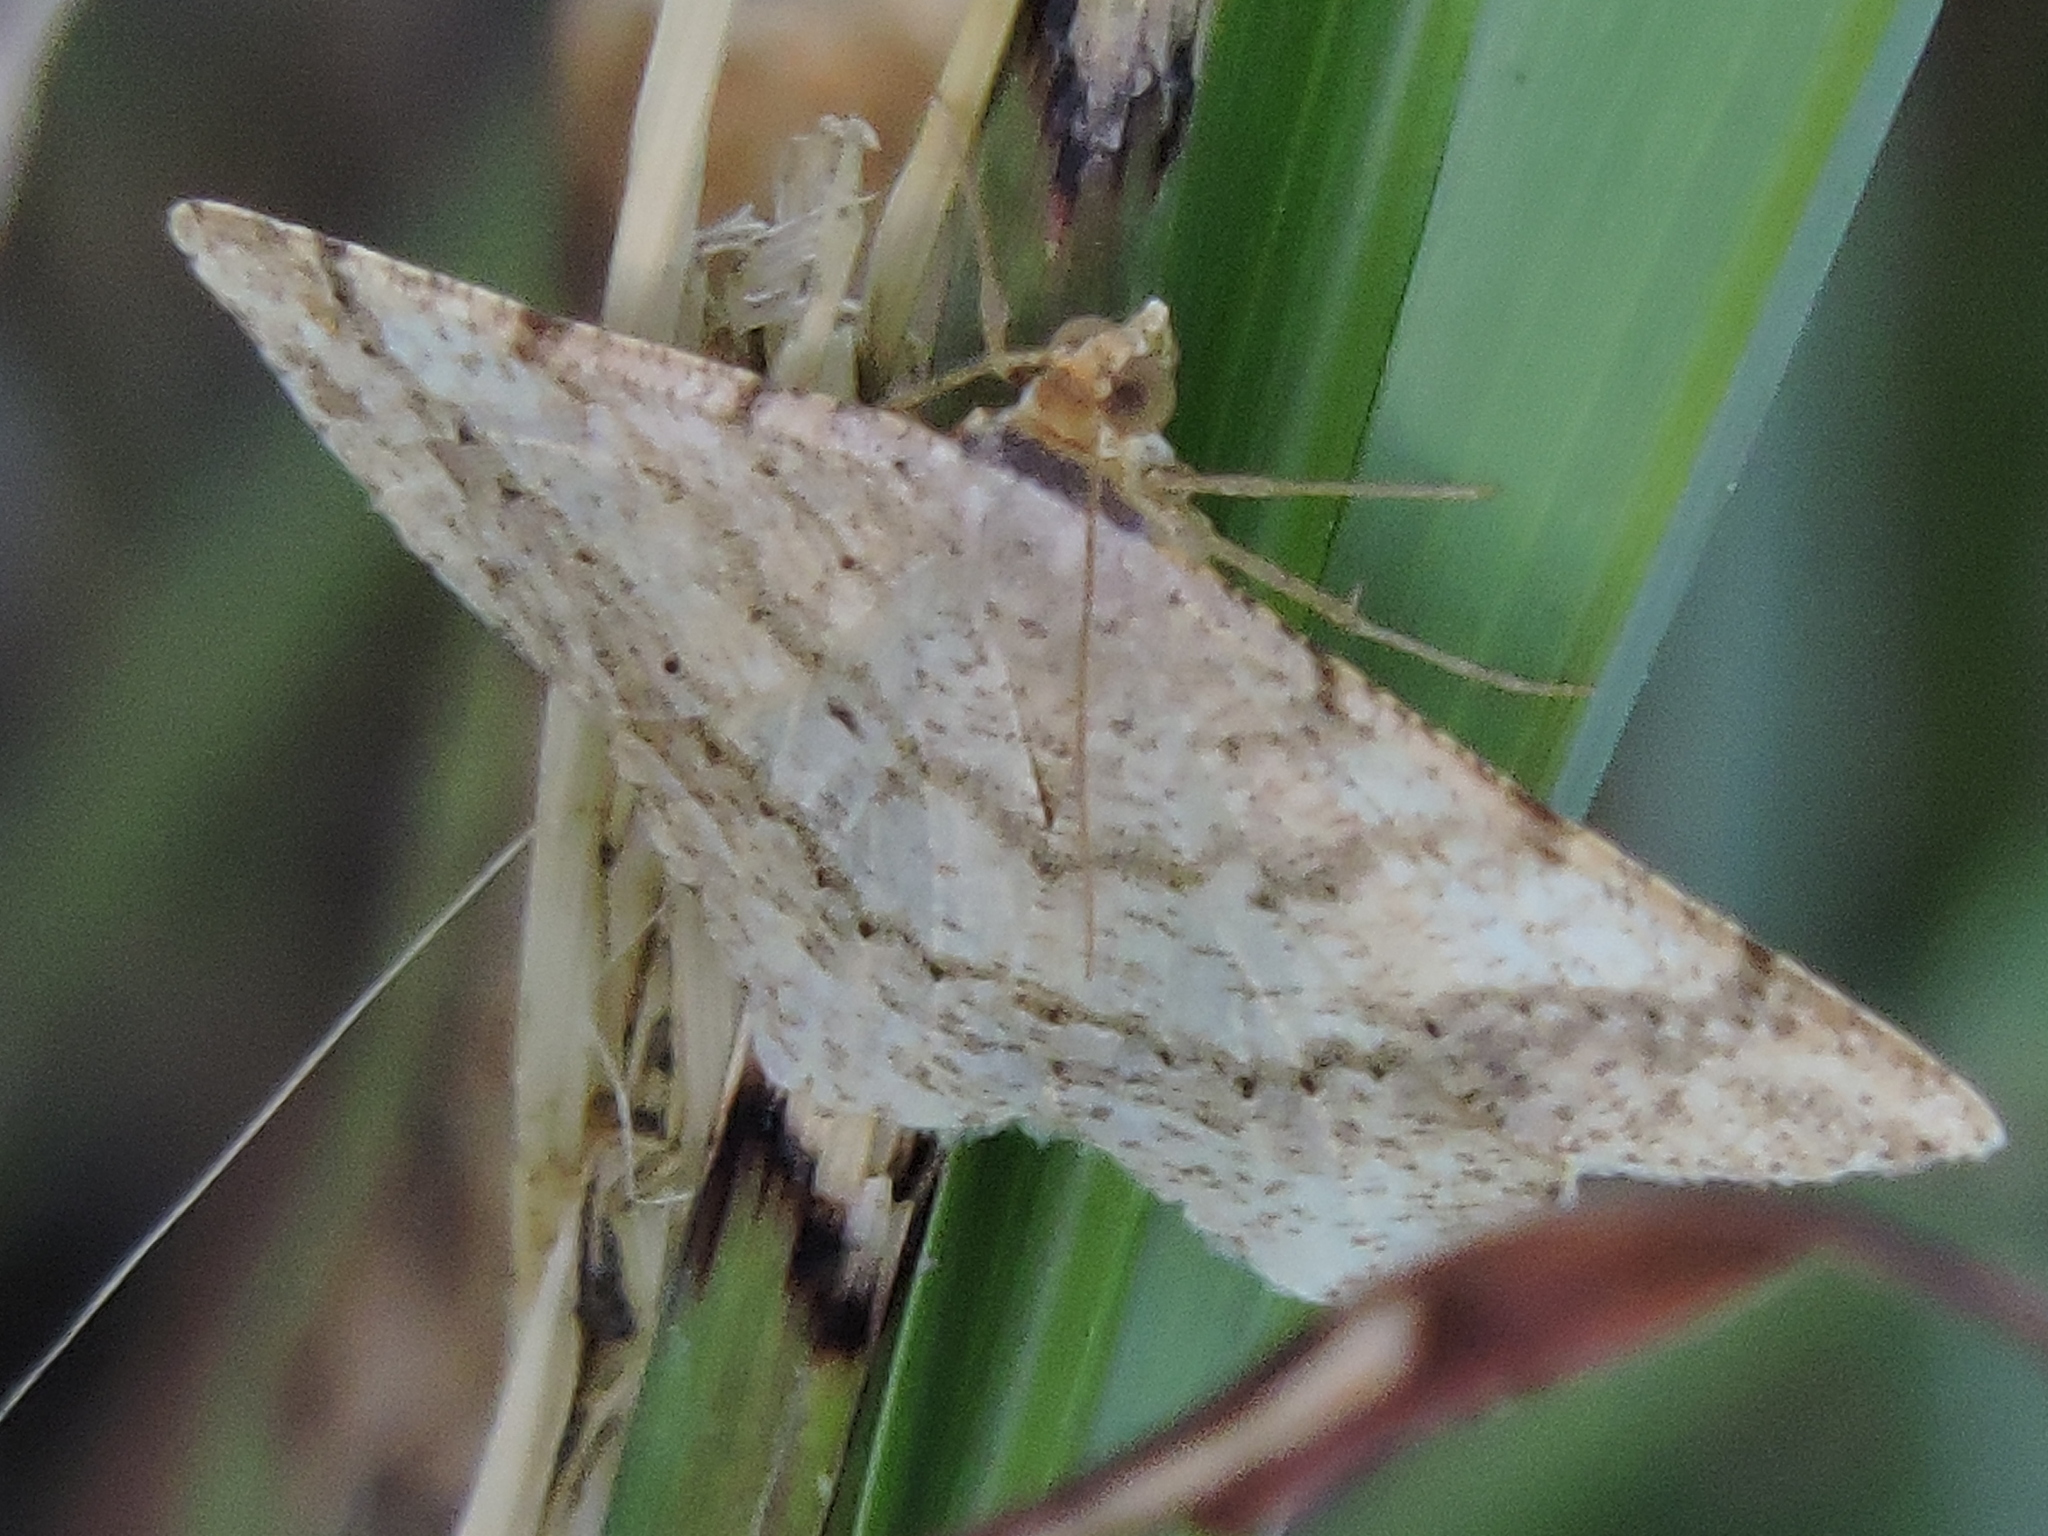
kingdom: Animalia
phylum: Arthropoda
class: Insecta
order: Lepidoptera
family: Geometridae
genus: Macaria
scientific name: Macaria abydata
